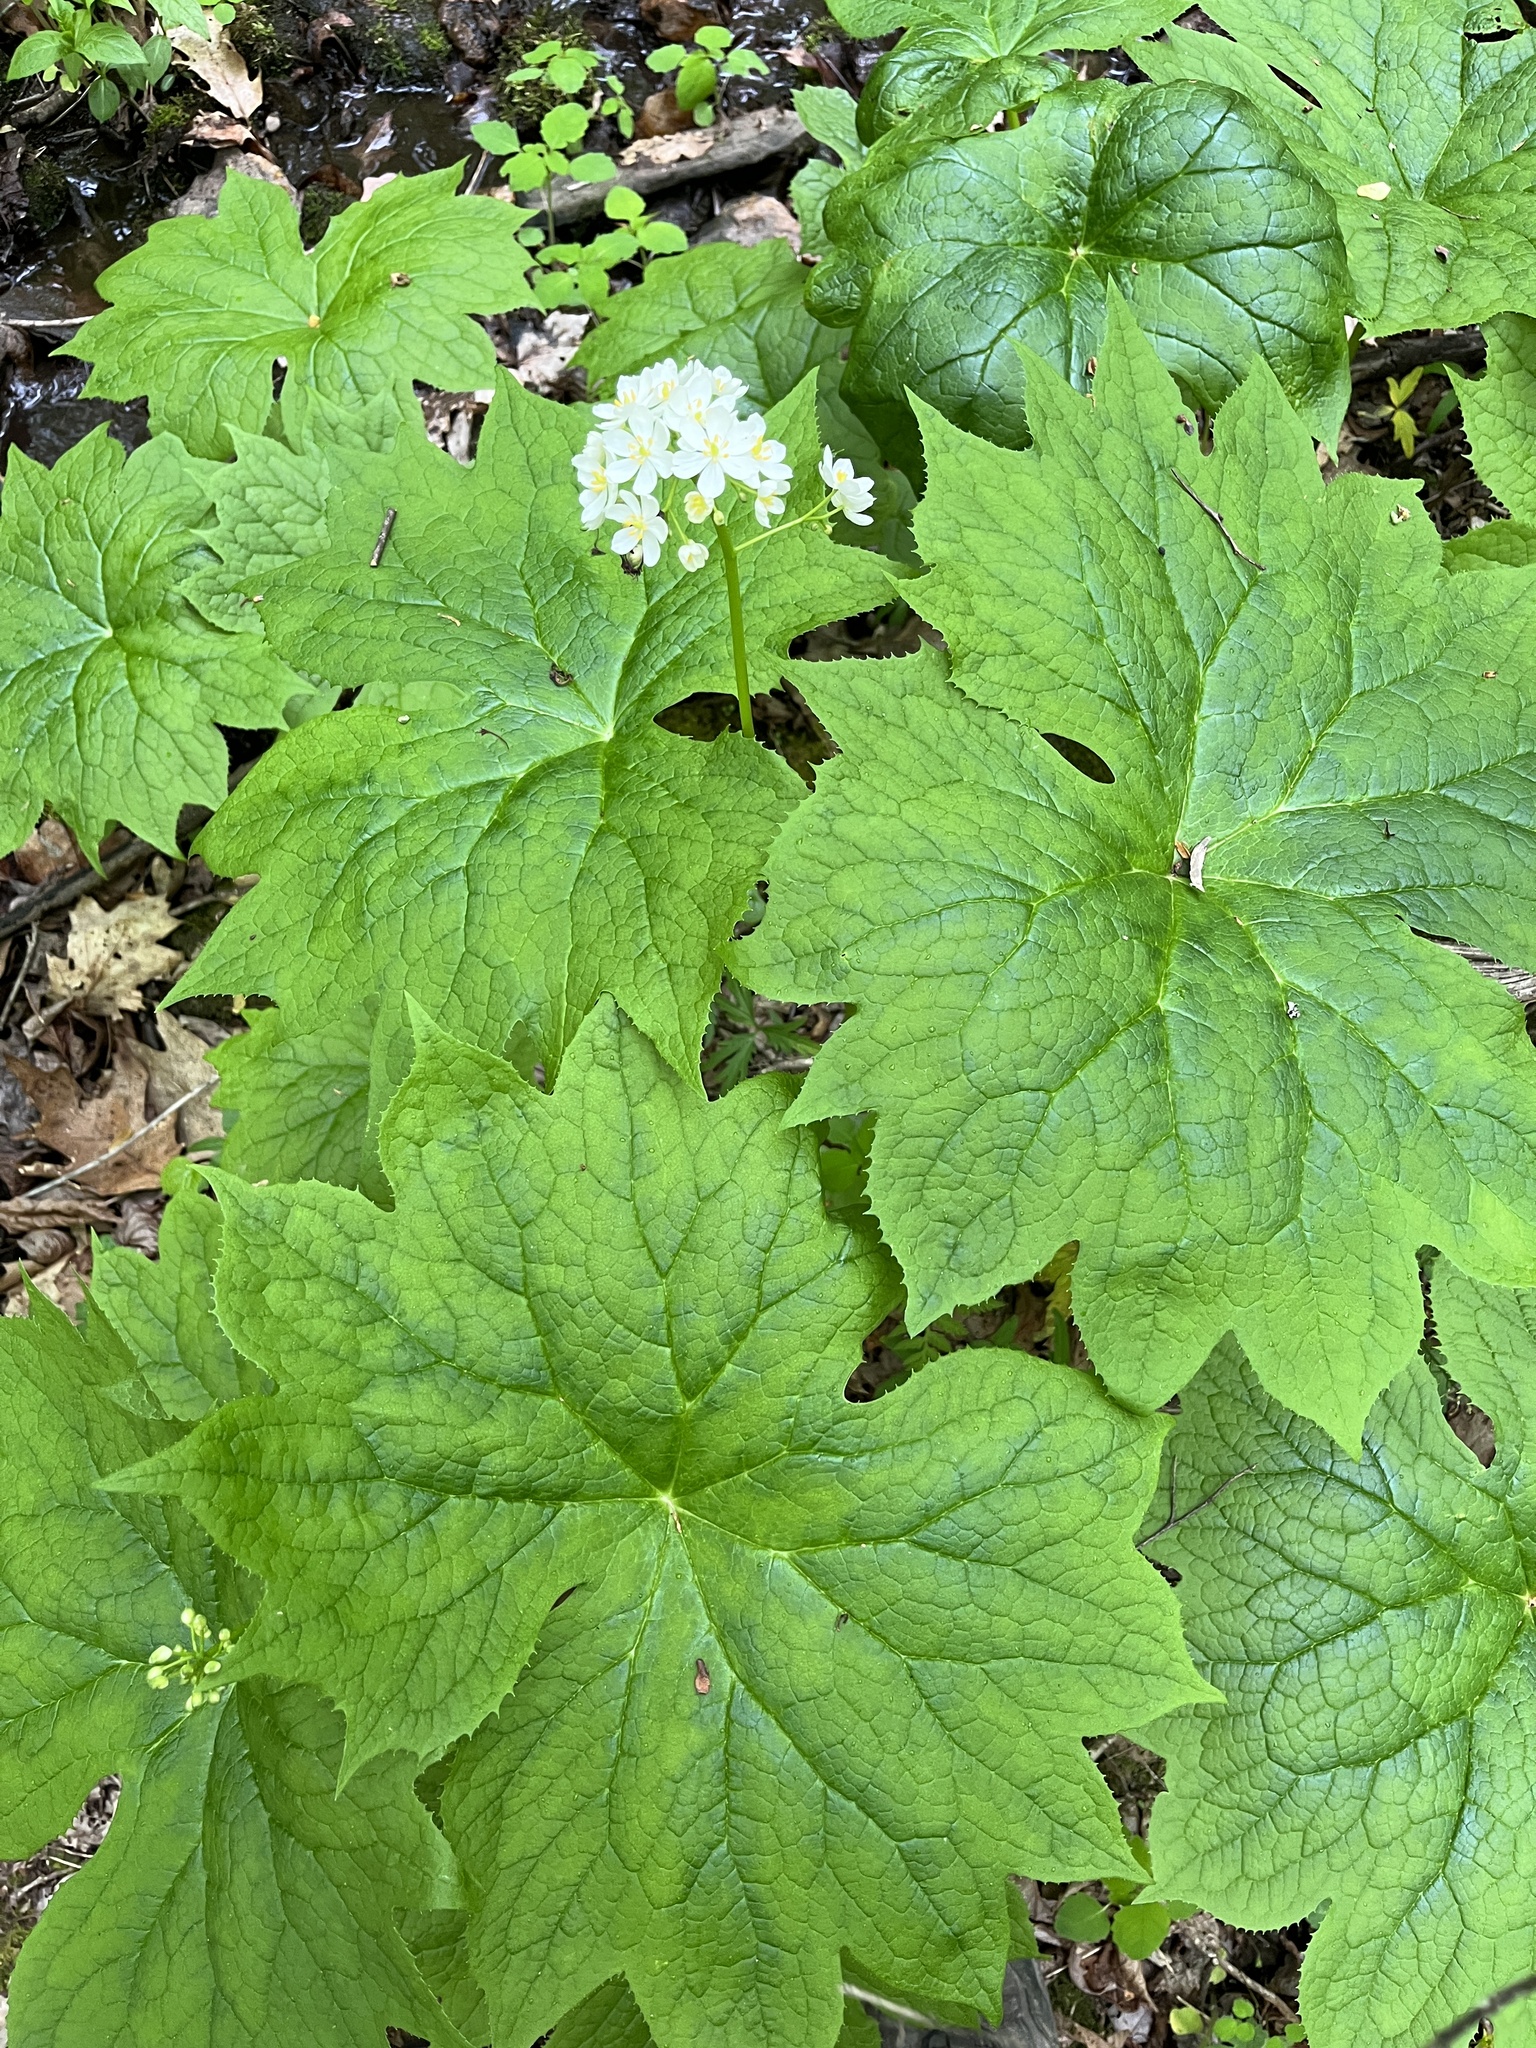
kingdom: Plantae
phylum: Tracheophyta
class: Magnoliopsida
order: Ranunculales
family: Berberidaceae
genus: Diphylleia
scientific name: Diphylleia cymosa
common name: Umbrella-leaf
